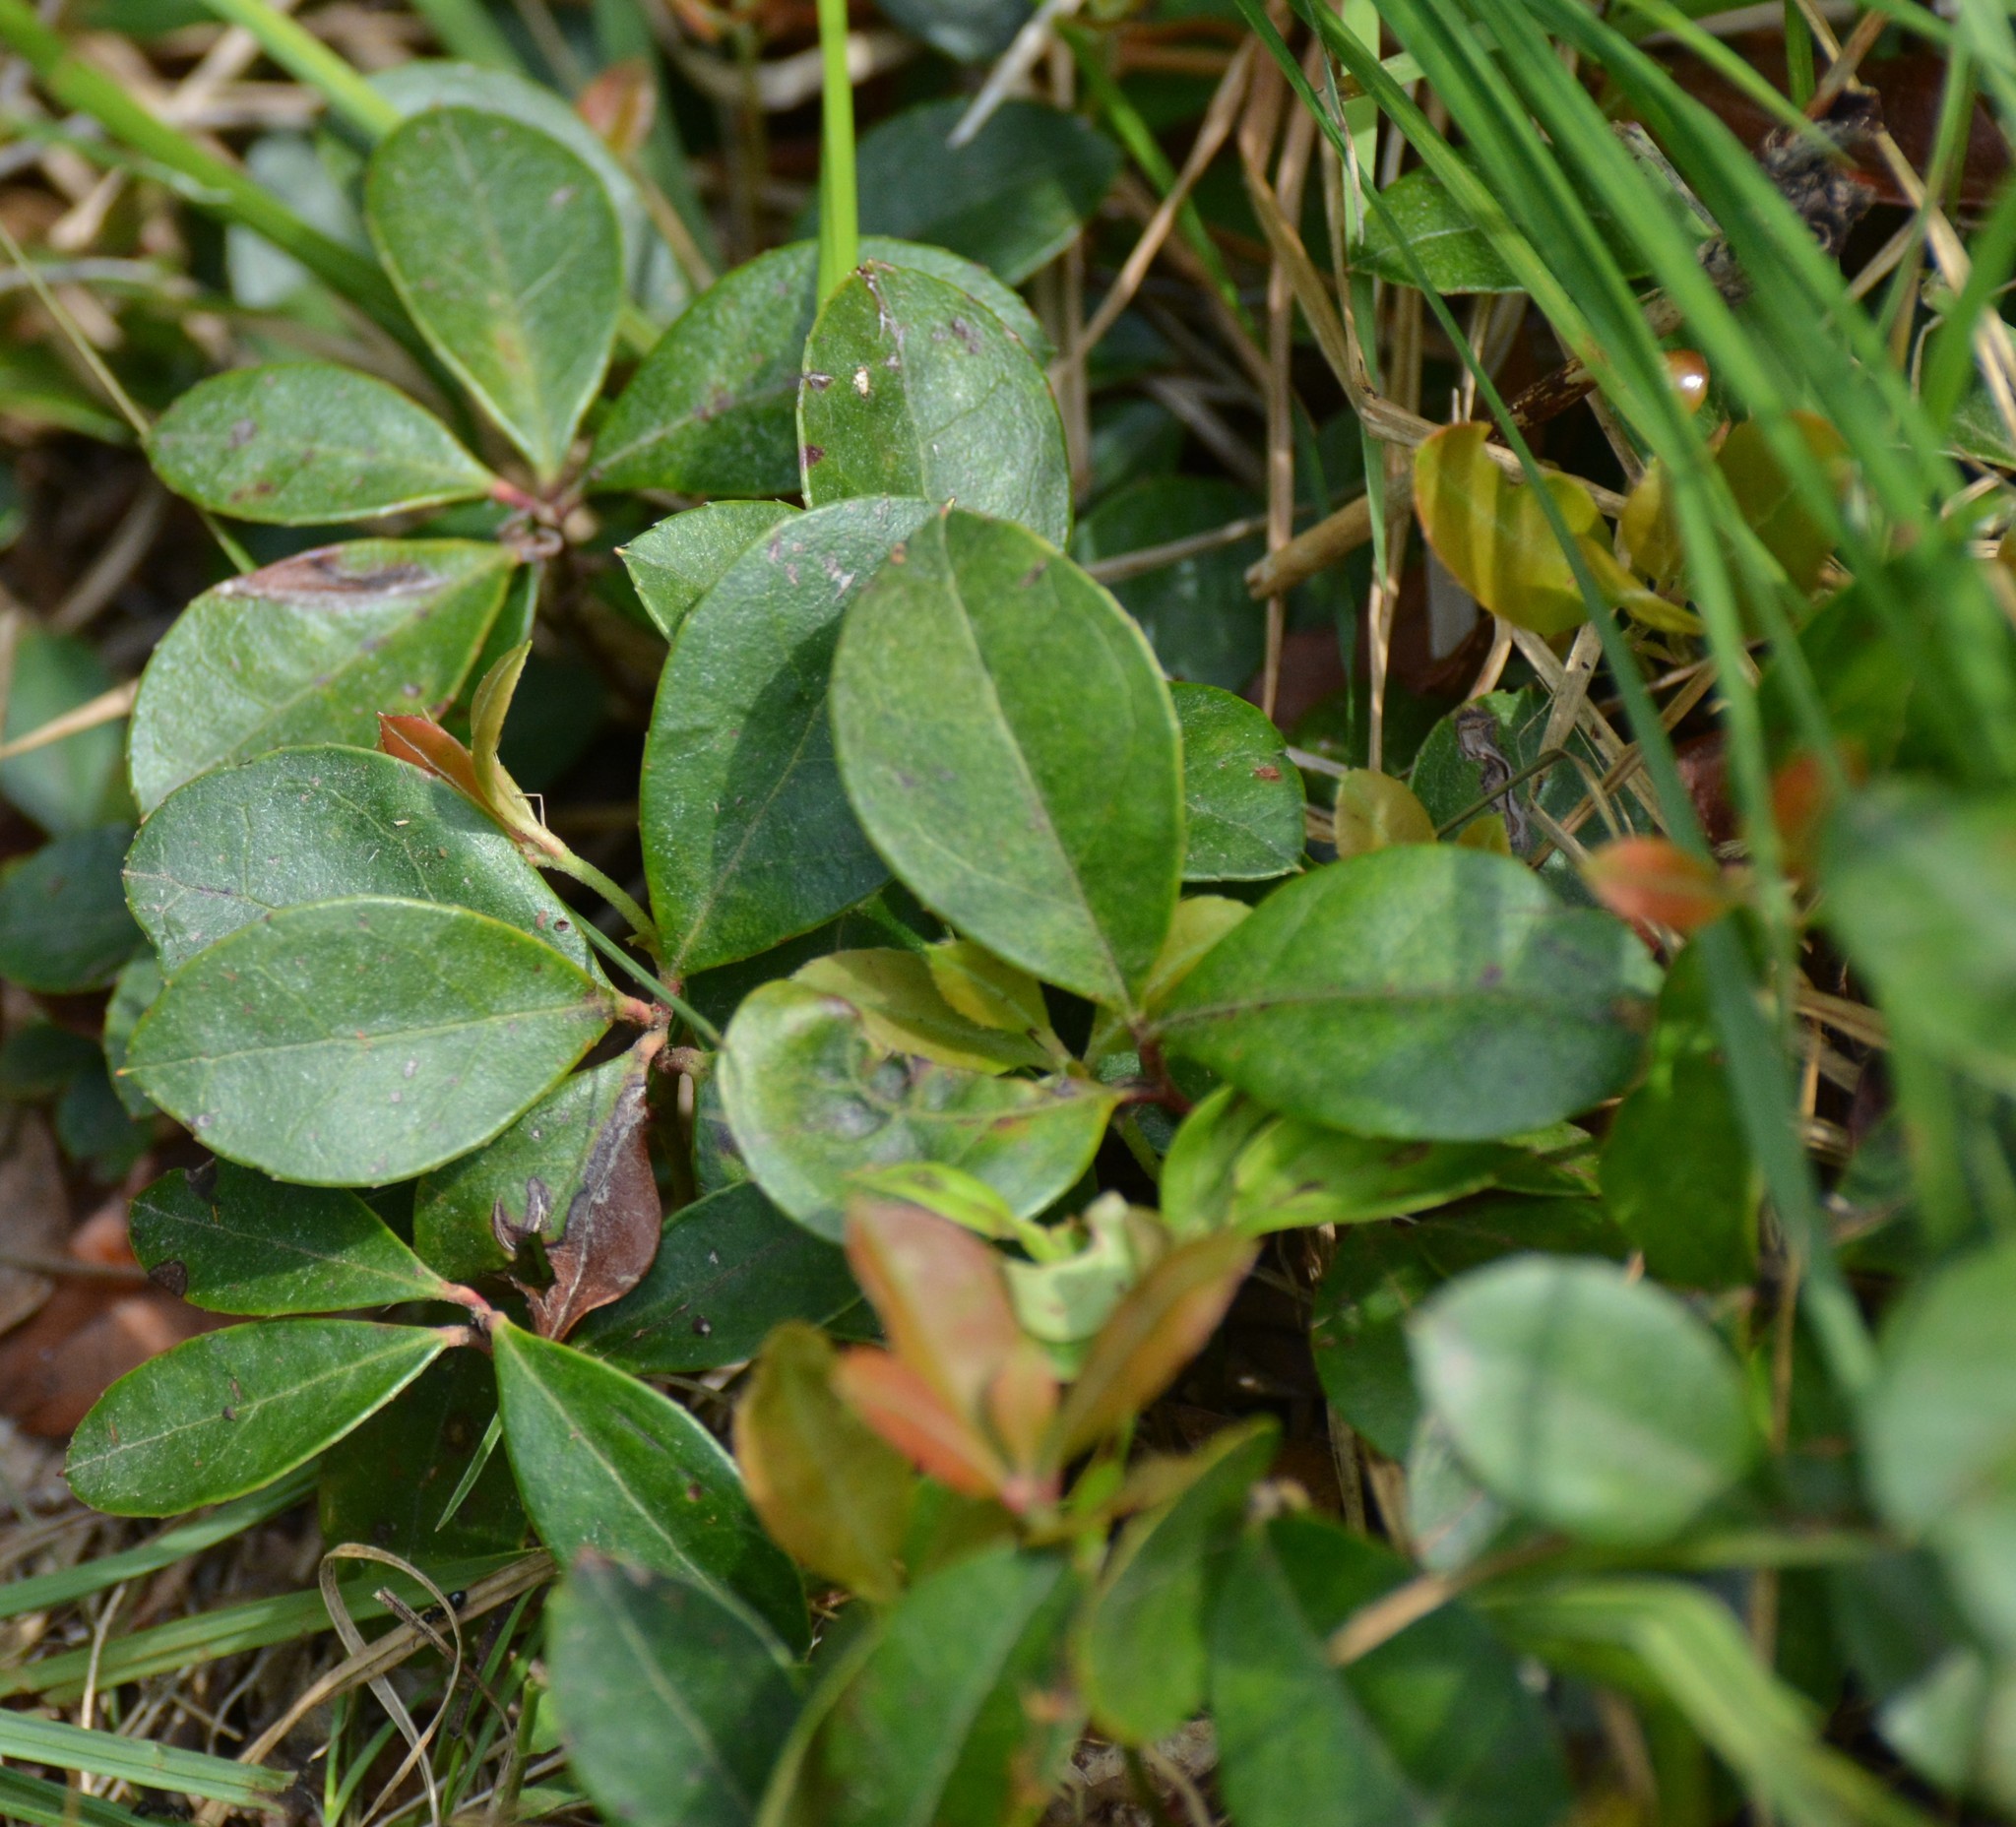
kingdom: Plantae
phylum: Tracheophyta
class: Magnoliopsida
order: Ericales
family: Ericaceae
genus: Gaultheria
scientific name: Gaultheria procumbens
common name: Checkerberry
